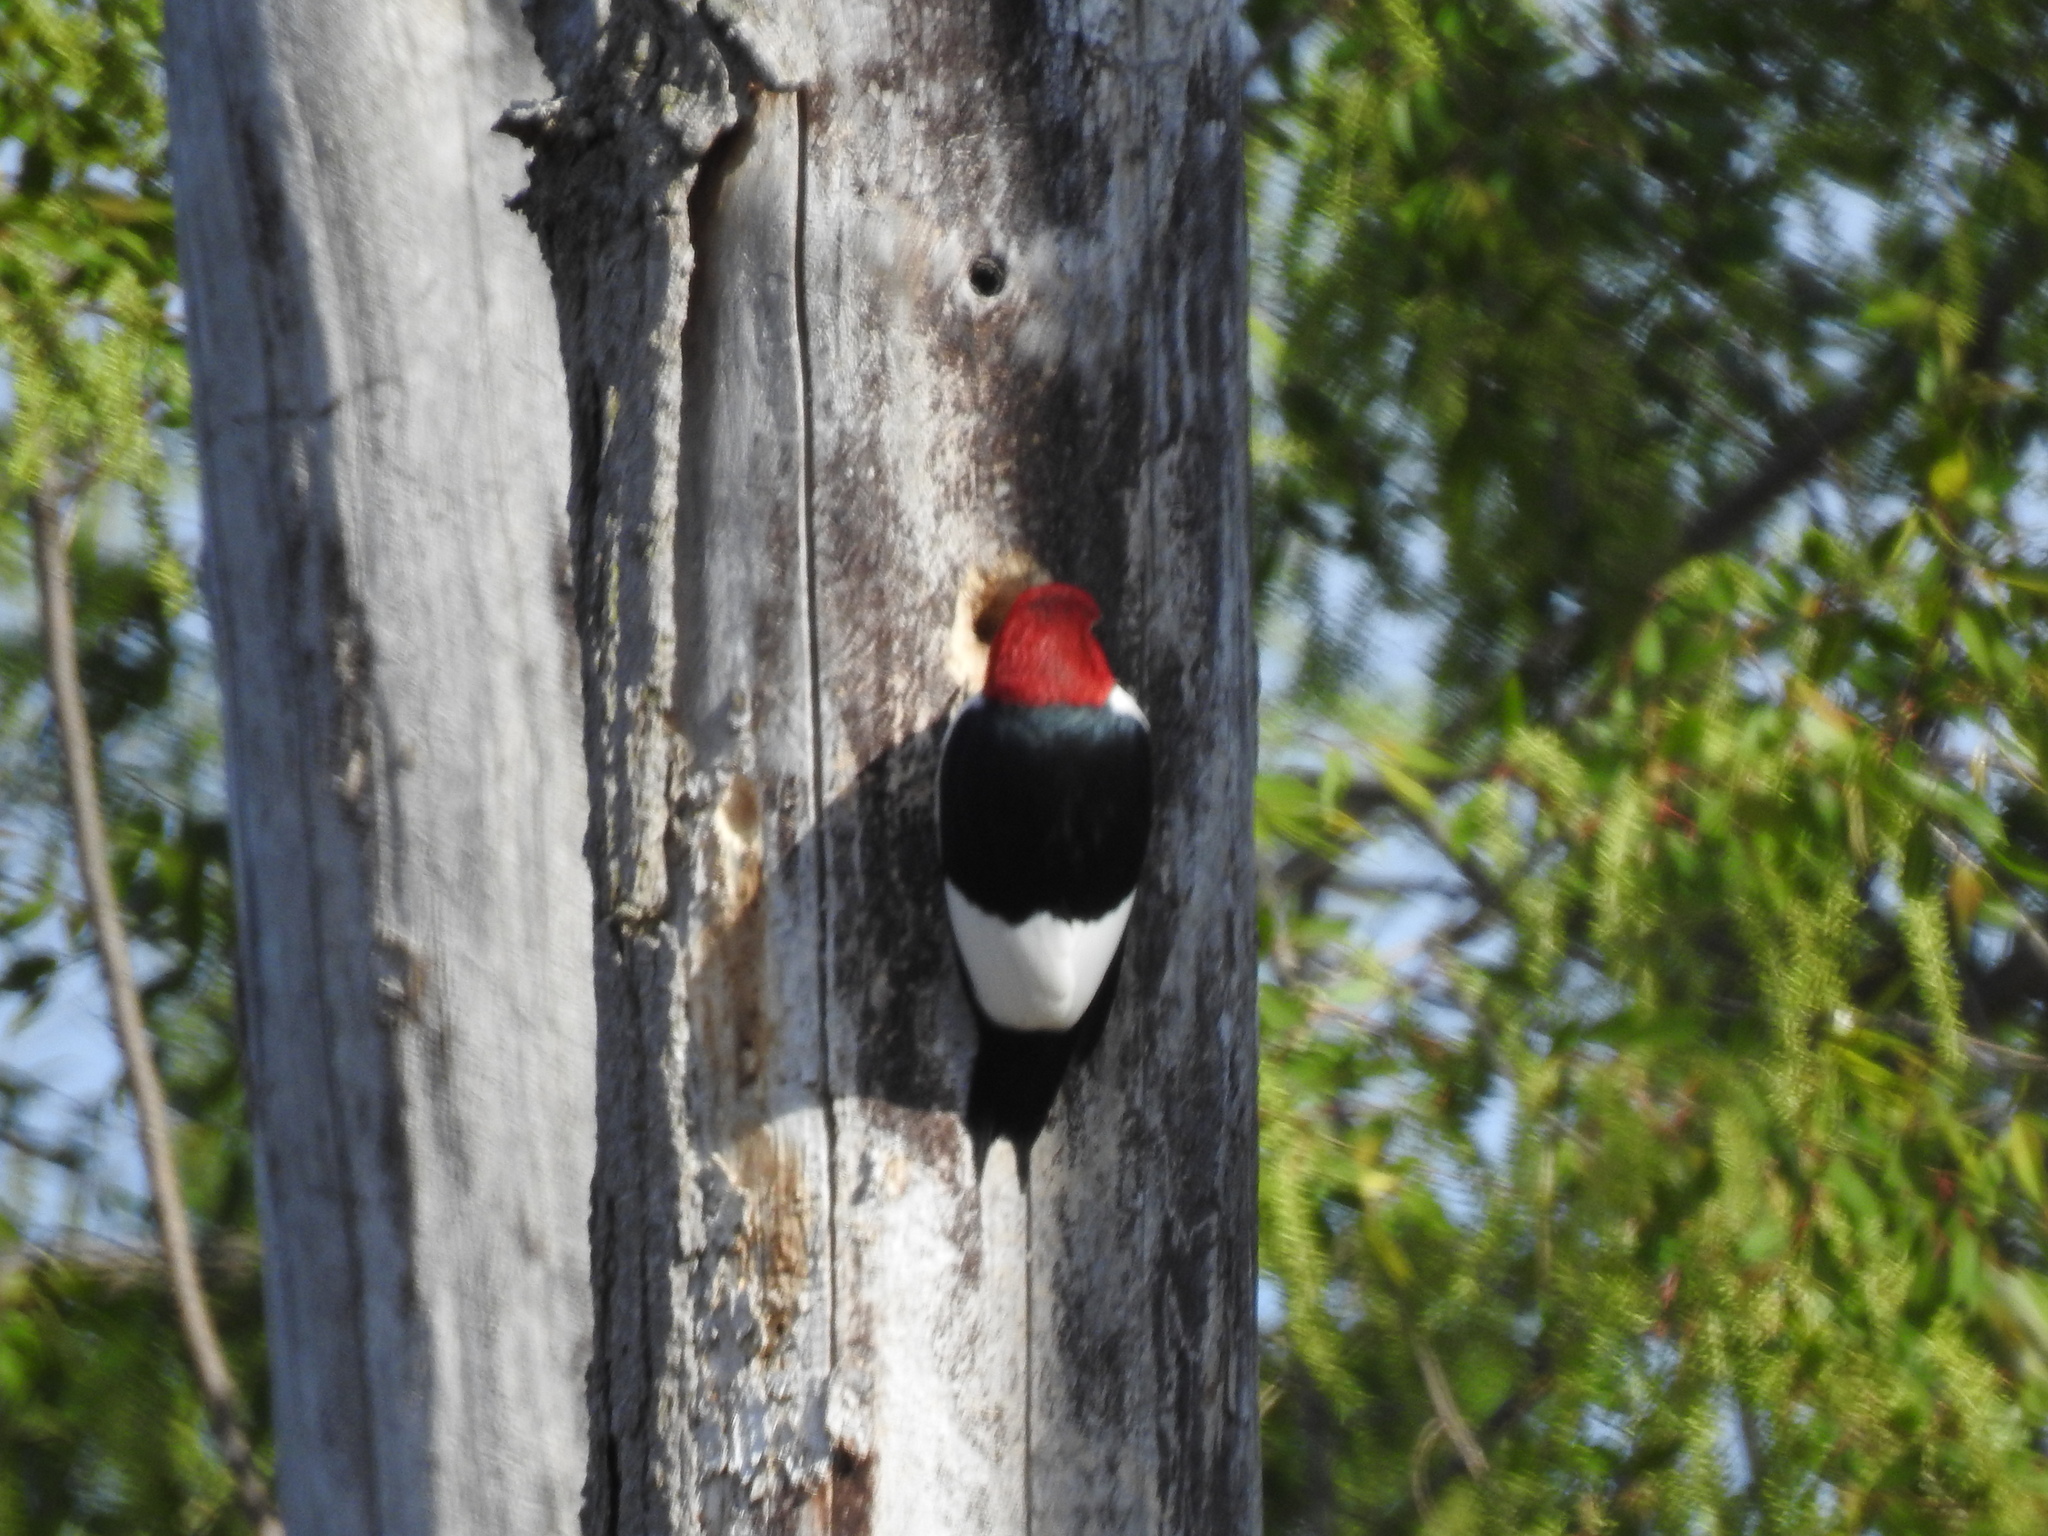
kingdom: Animalia
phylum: Chordata
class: Aves
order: Piciformes
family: Picidae
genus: Melanerpes
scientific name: Melanerpes erythrocephalus
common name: Red-headed woodpecker
